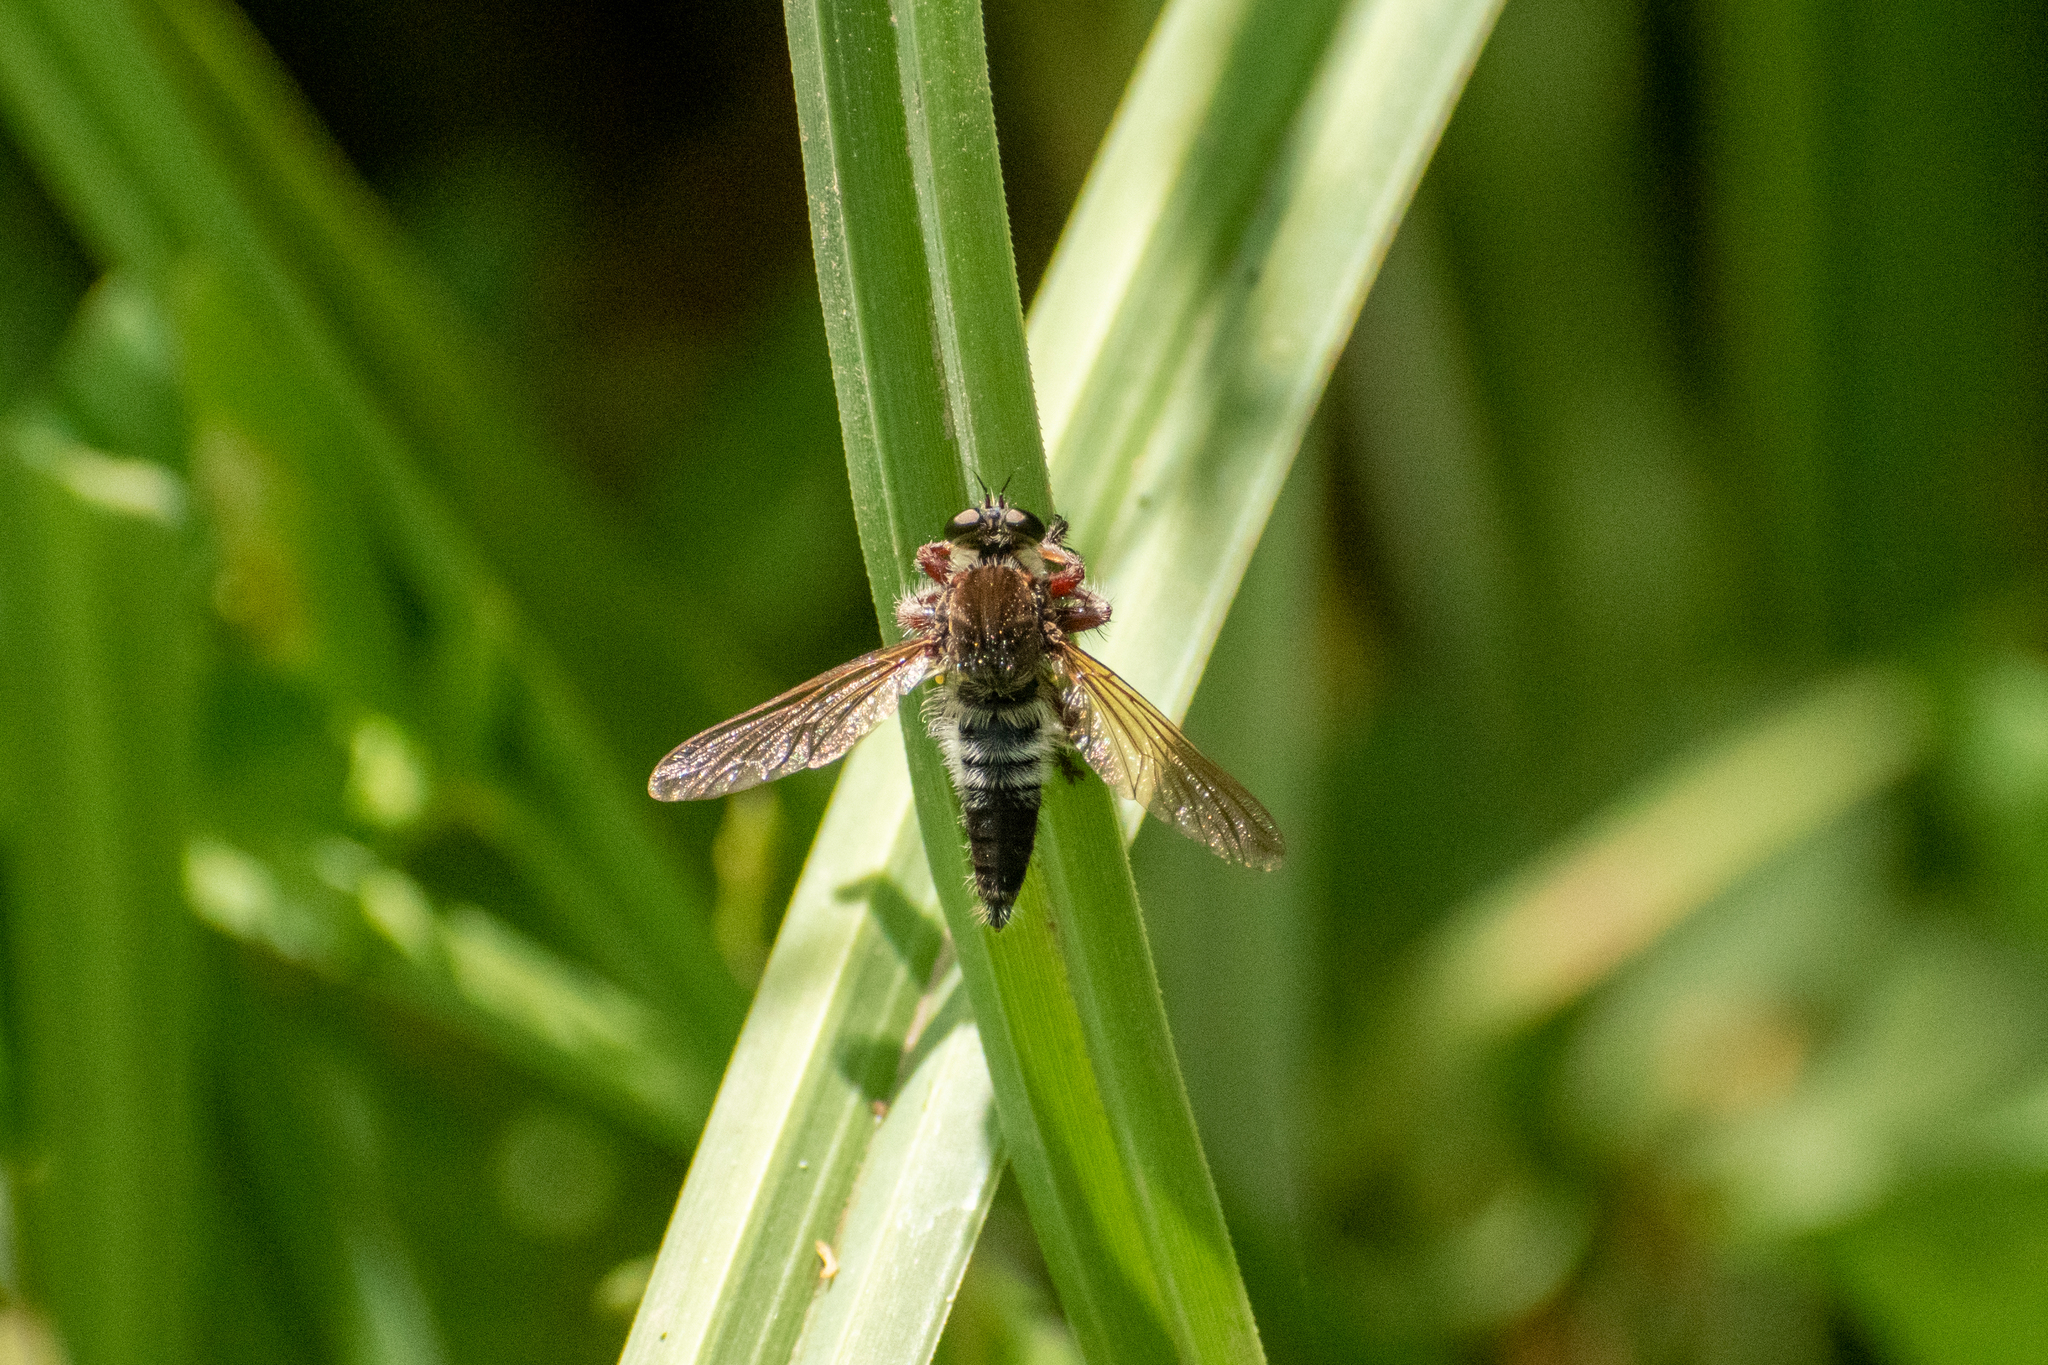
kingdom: Animalia
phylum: Arthropoda
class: Insecta
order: Diptera
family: Asilidae
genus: Mallophora
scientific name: Mallophora bigotii
